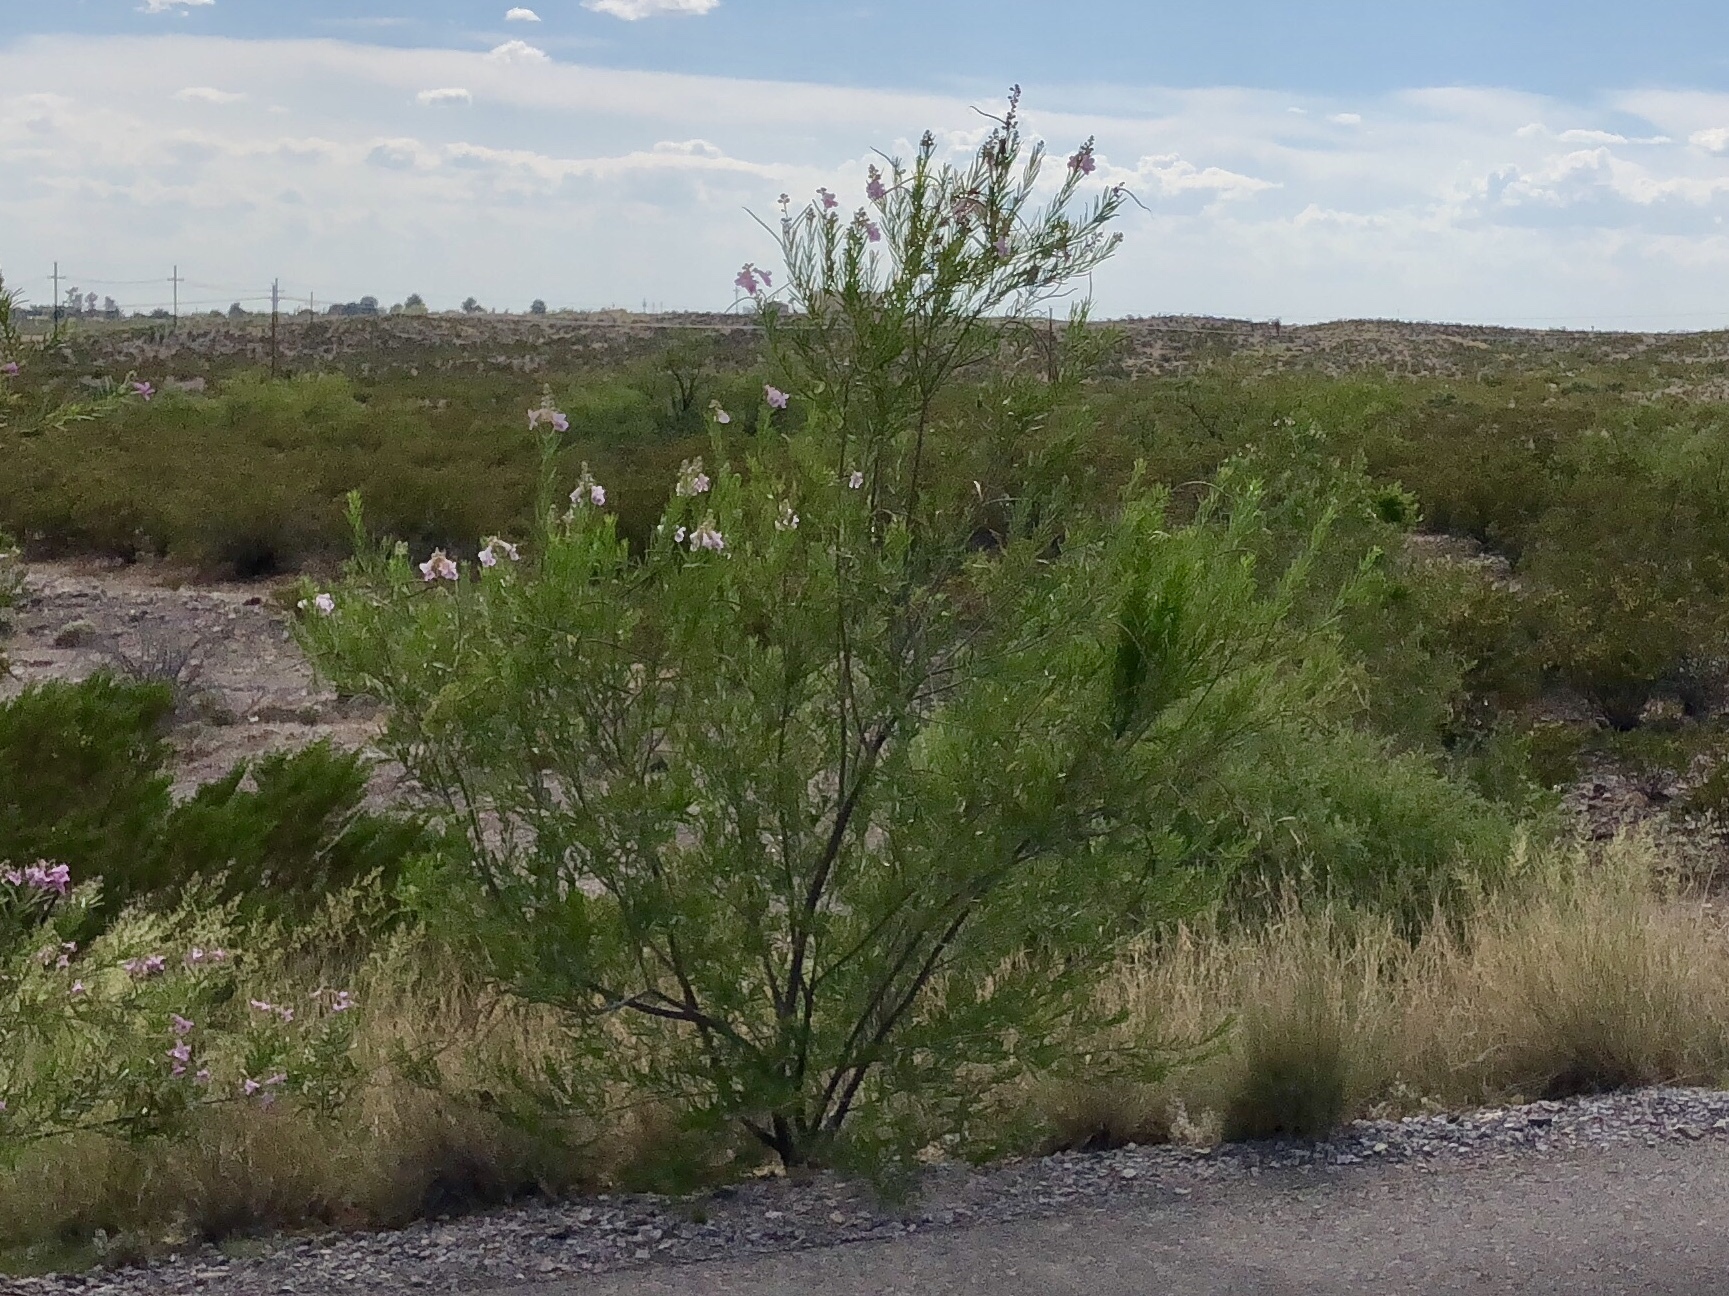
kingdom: Plantae
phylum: Tracheophyta
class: Magnoliopsida
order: Lamiales
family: Bignoniaceae
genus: Chilopsis
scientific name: Chilopsis linearis
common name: Desert-willow
